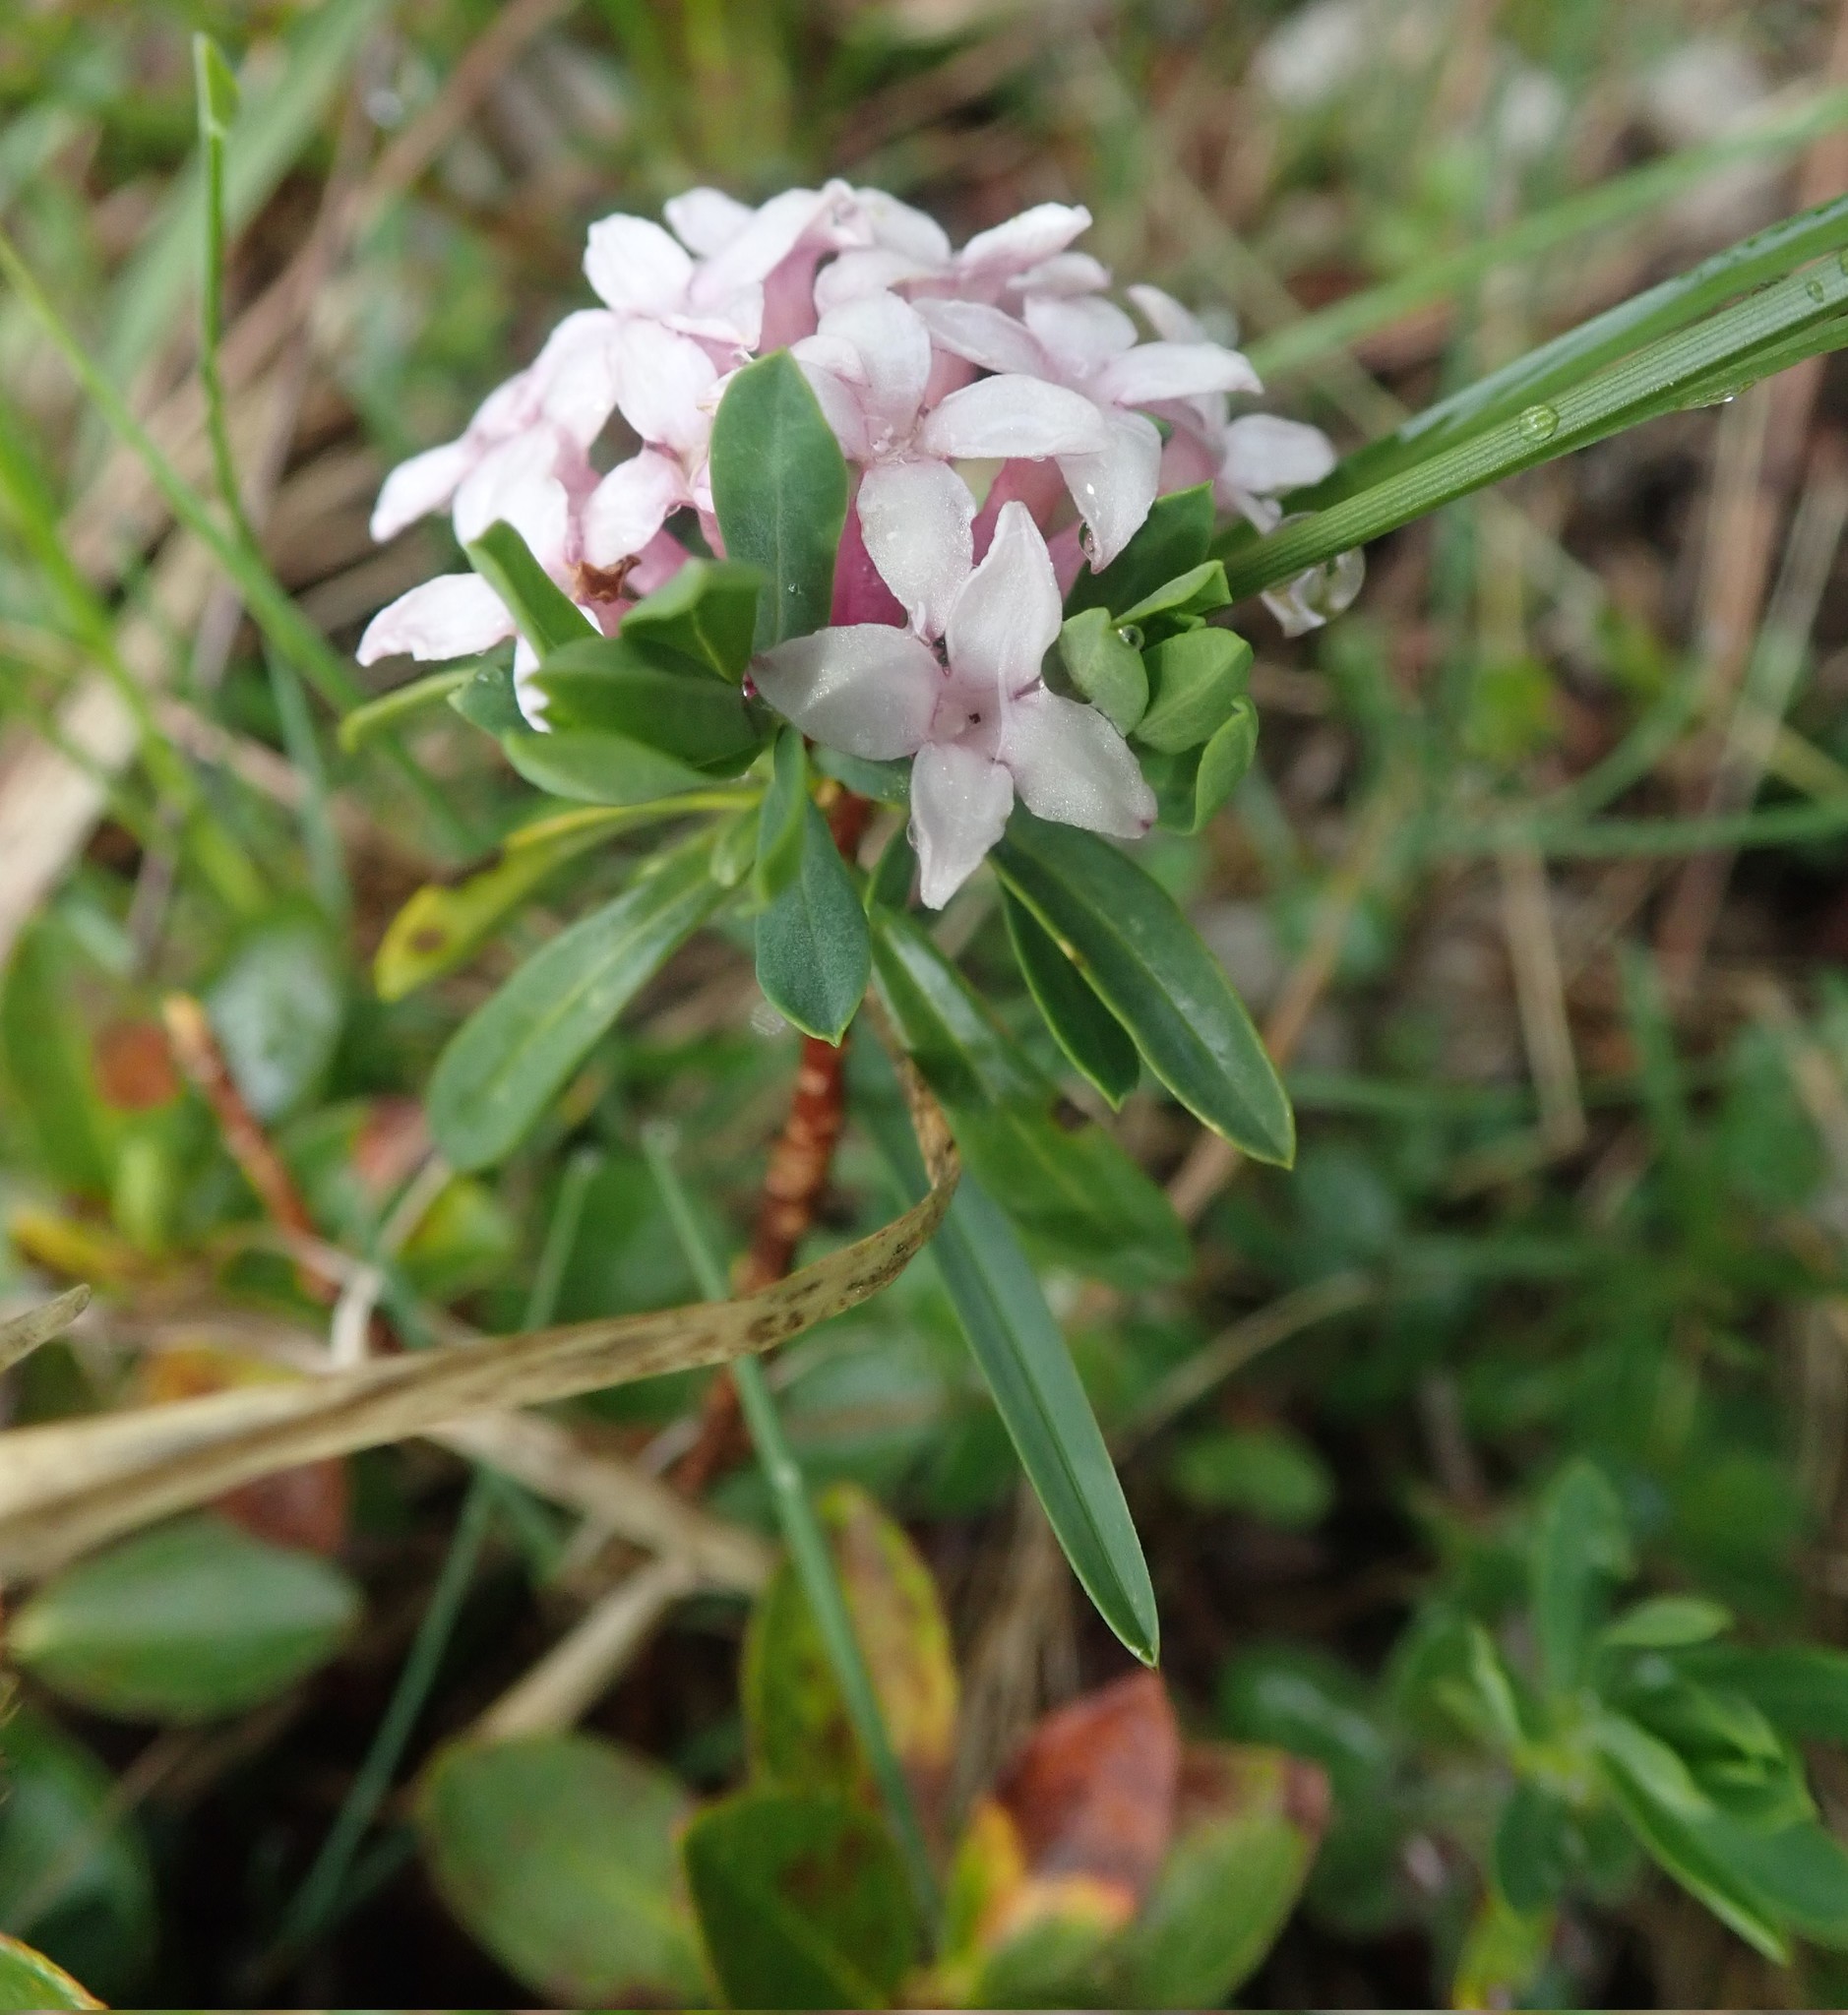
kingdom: Plantae
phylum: Tracheophyta
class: Magnoliopsida
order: Malvales
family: Thymelaeaceae
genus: Daphne
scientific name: Daphne striata
